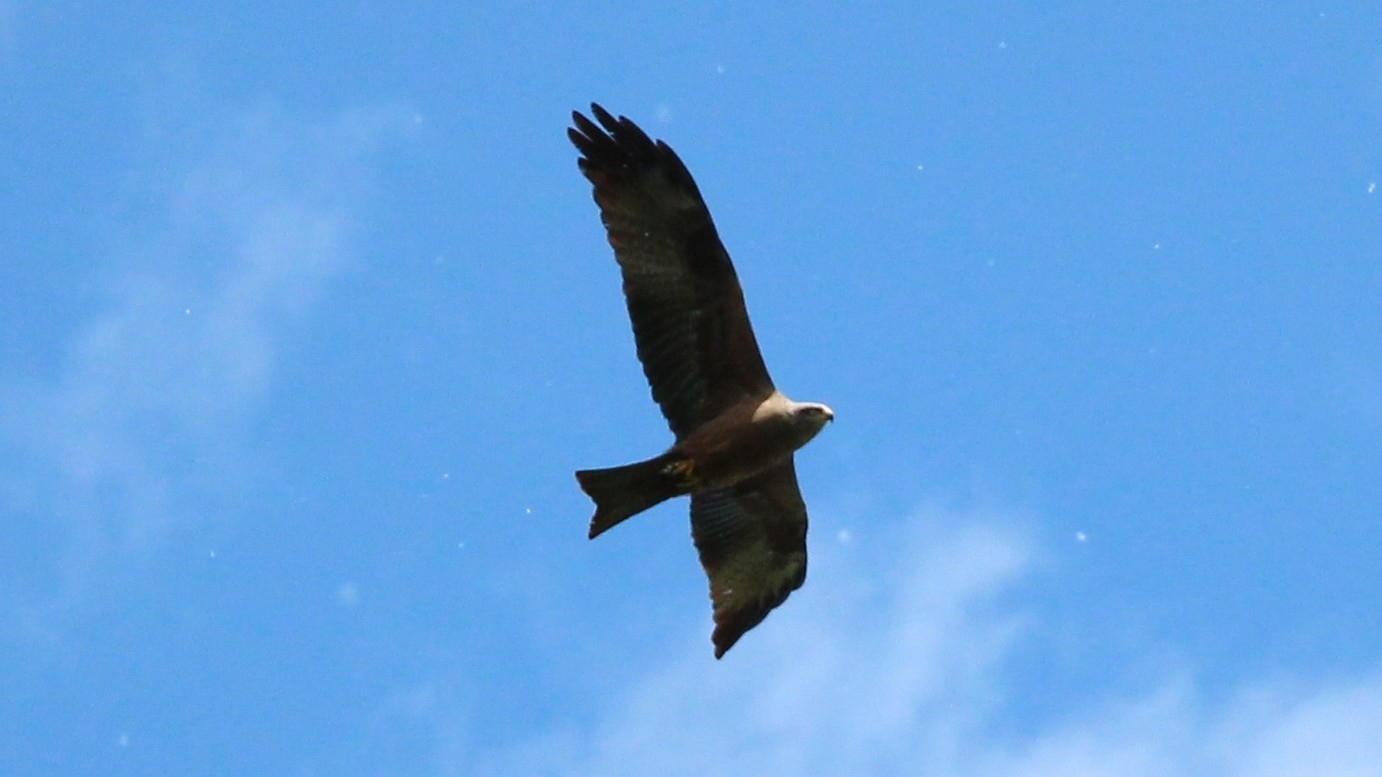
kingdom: Animalia
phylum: Chordata
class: Aves
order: Accipitriformes
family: Accipitridae
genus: Milvus
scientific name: Milvus migrans
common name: Black kite
